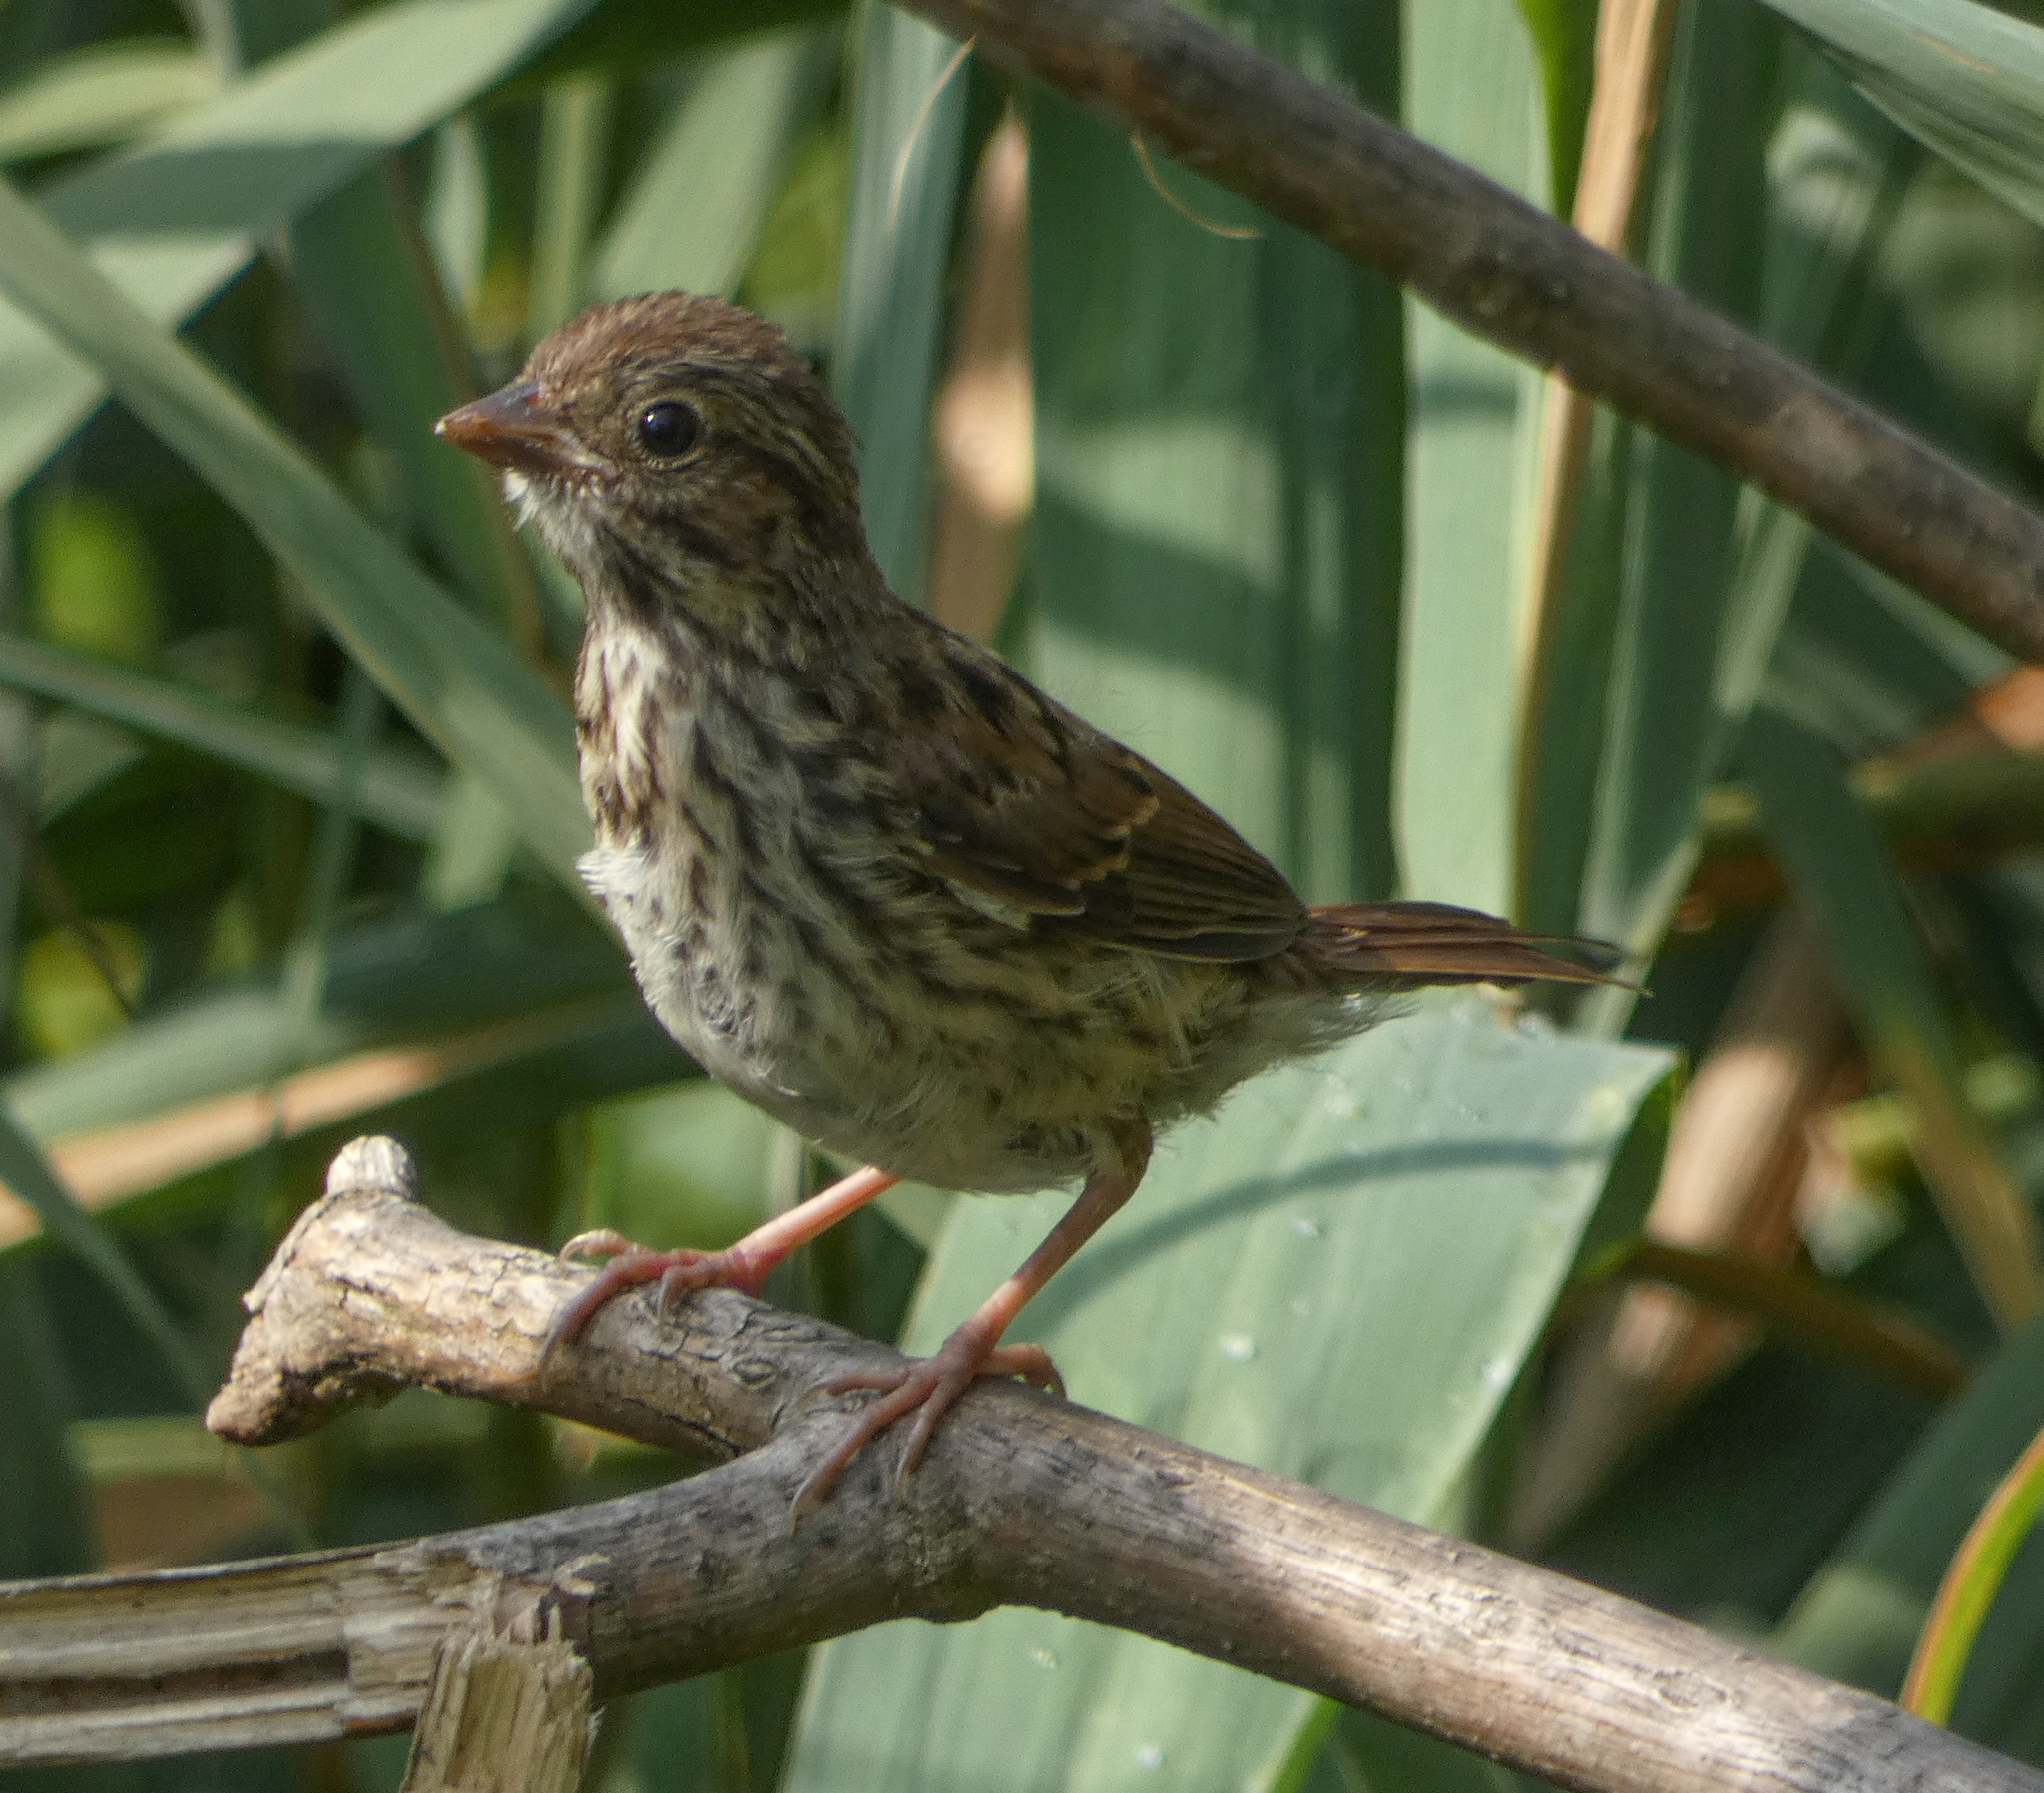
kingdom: Animalia
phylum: Chordata
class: Aves
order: Passeriformes
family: Passerellidae
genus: Melospiza
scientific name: Melospiza melodia
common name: Song sparrow
